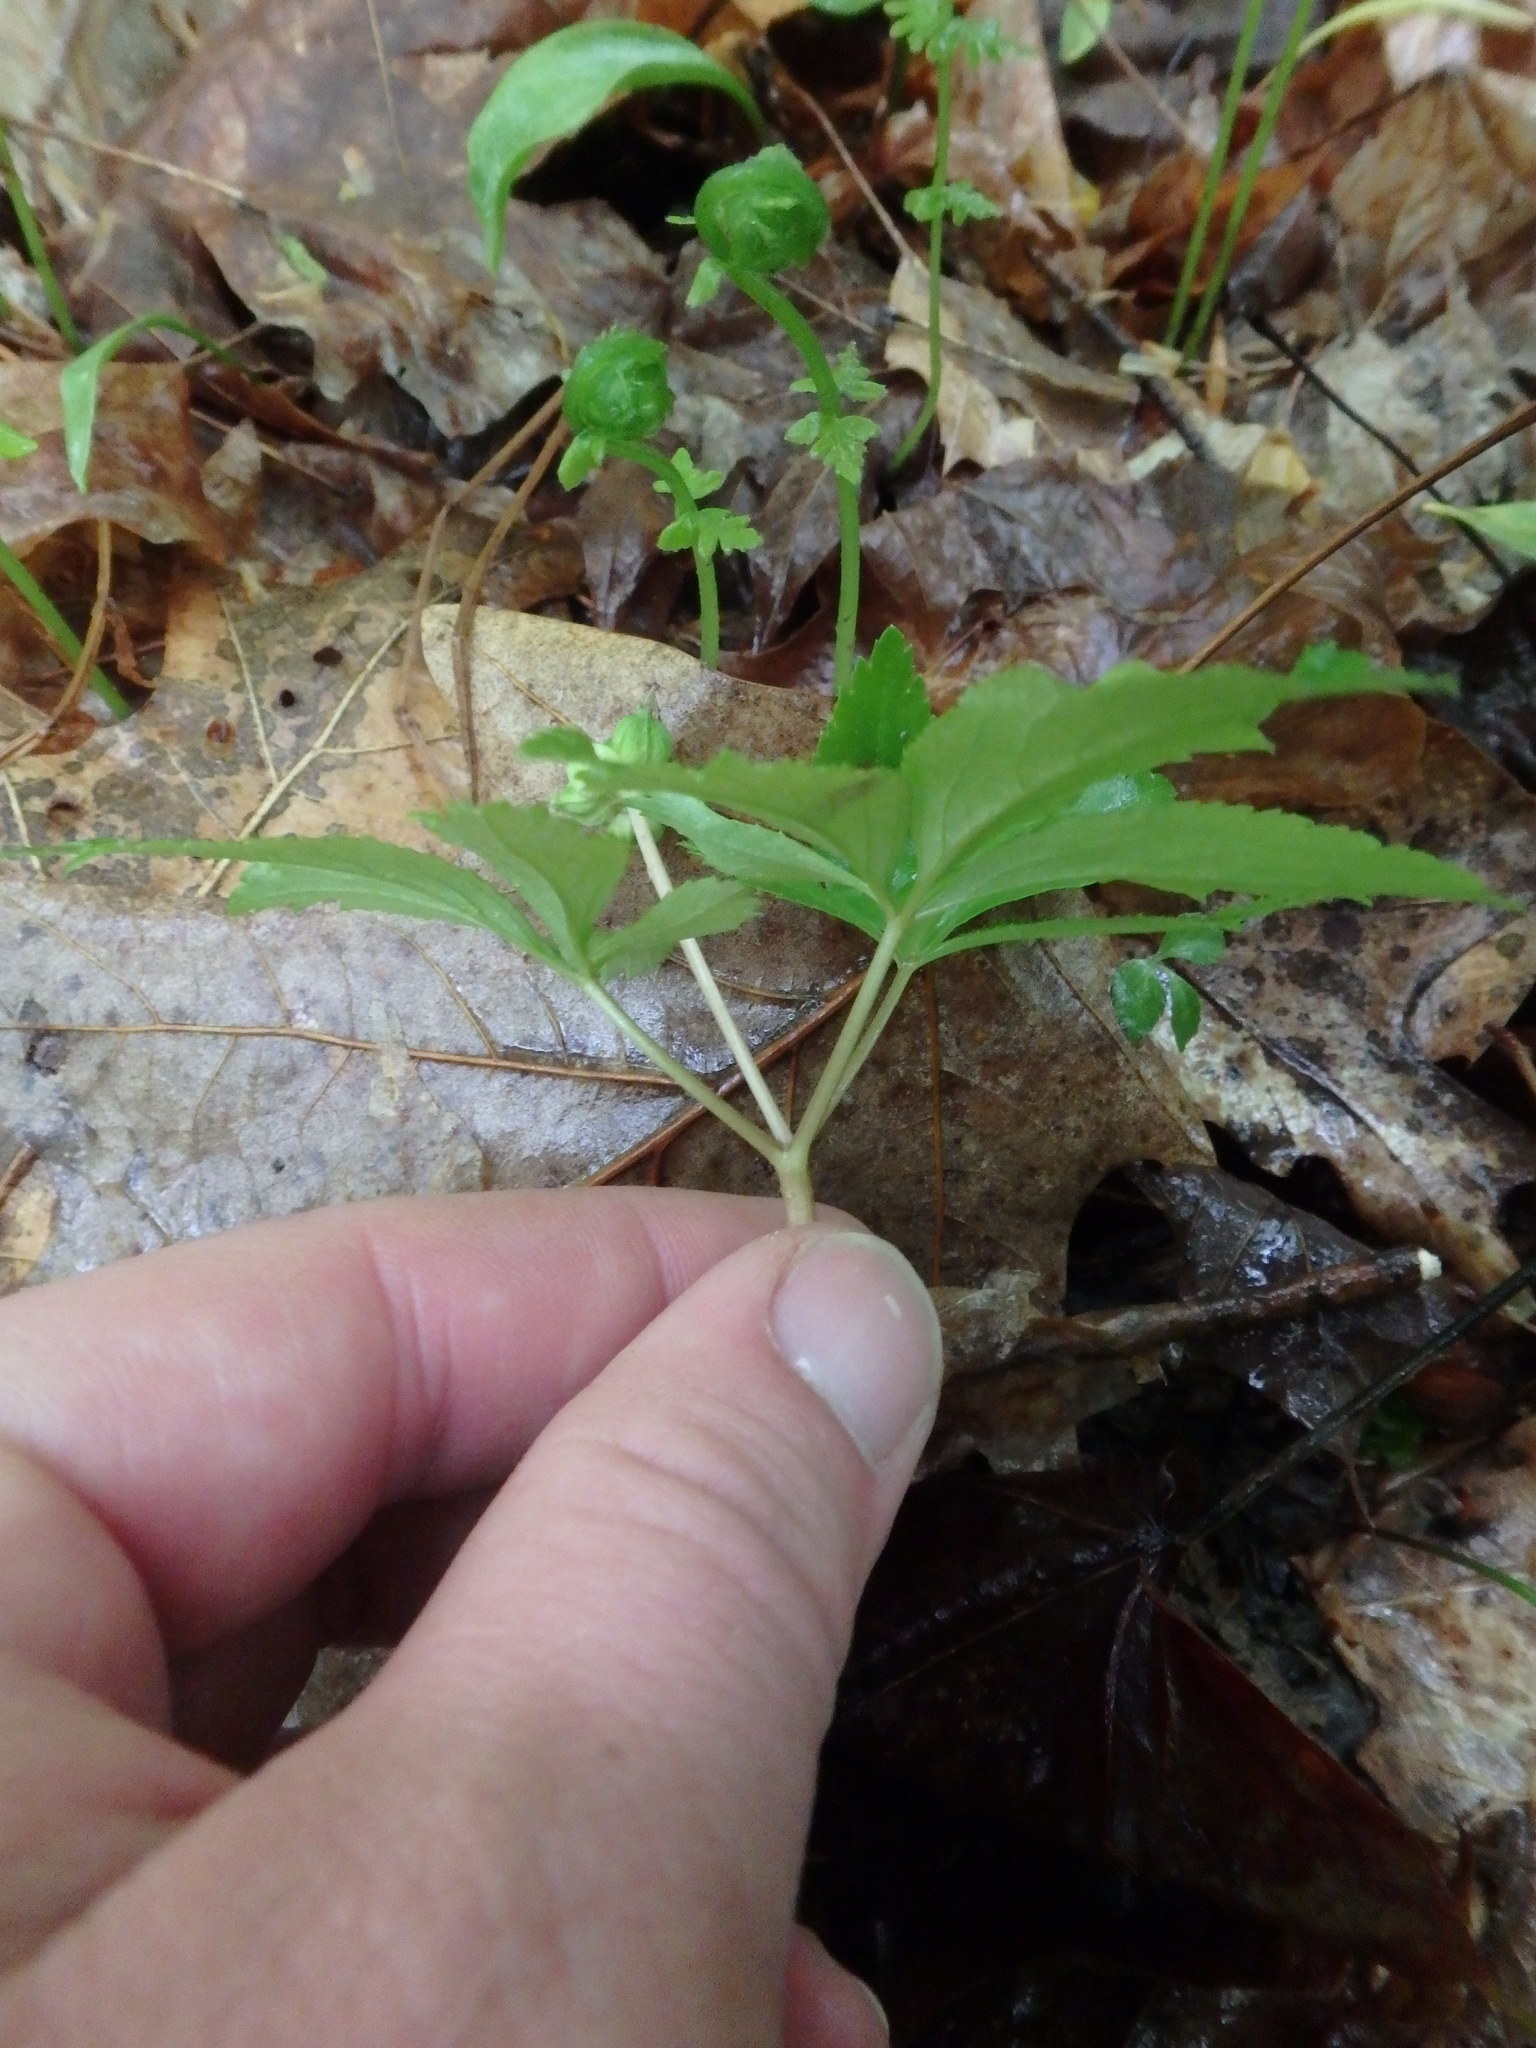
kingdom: Plantae
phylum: Tracheophyta
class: Magnoliopsida
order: Apiales
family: Araliaceae
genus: Panax
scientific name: Panax trifolius
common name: Dwarf ginseng
